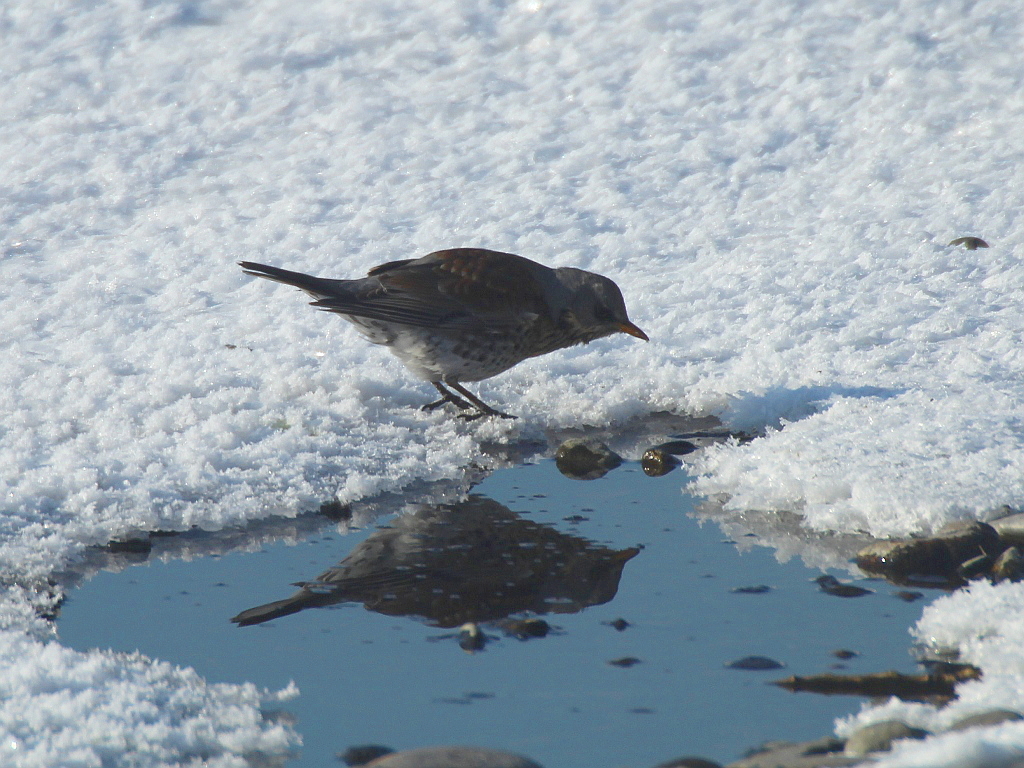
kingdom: Animalia
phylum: Chordata
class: Aves
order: Passeriformes
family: Turdidae
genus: Turdus
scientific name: Turdus pilaris
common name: Fieldfare
